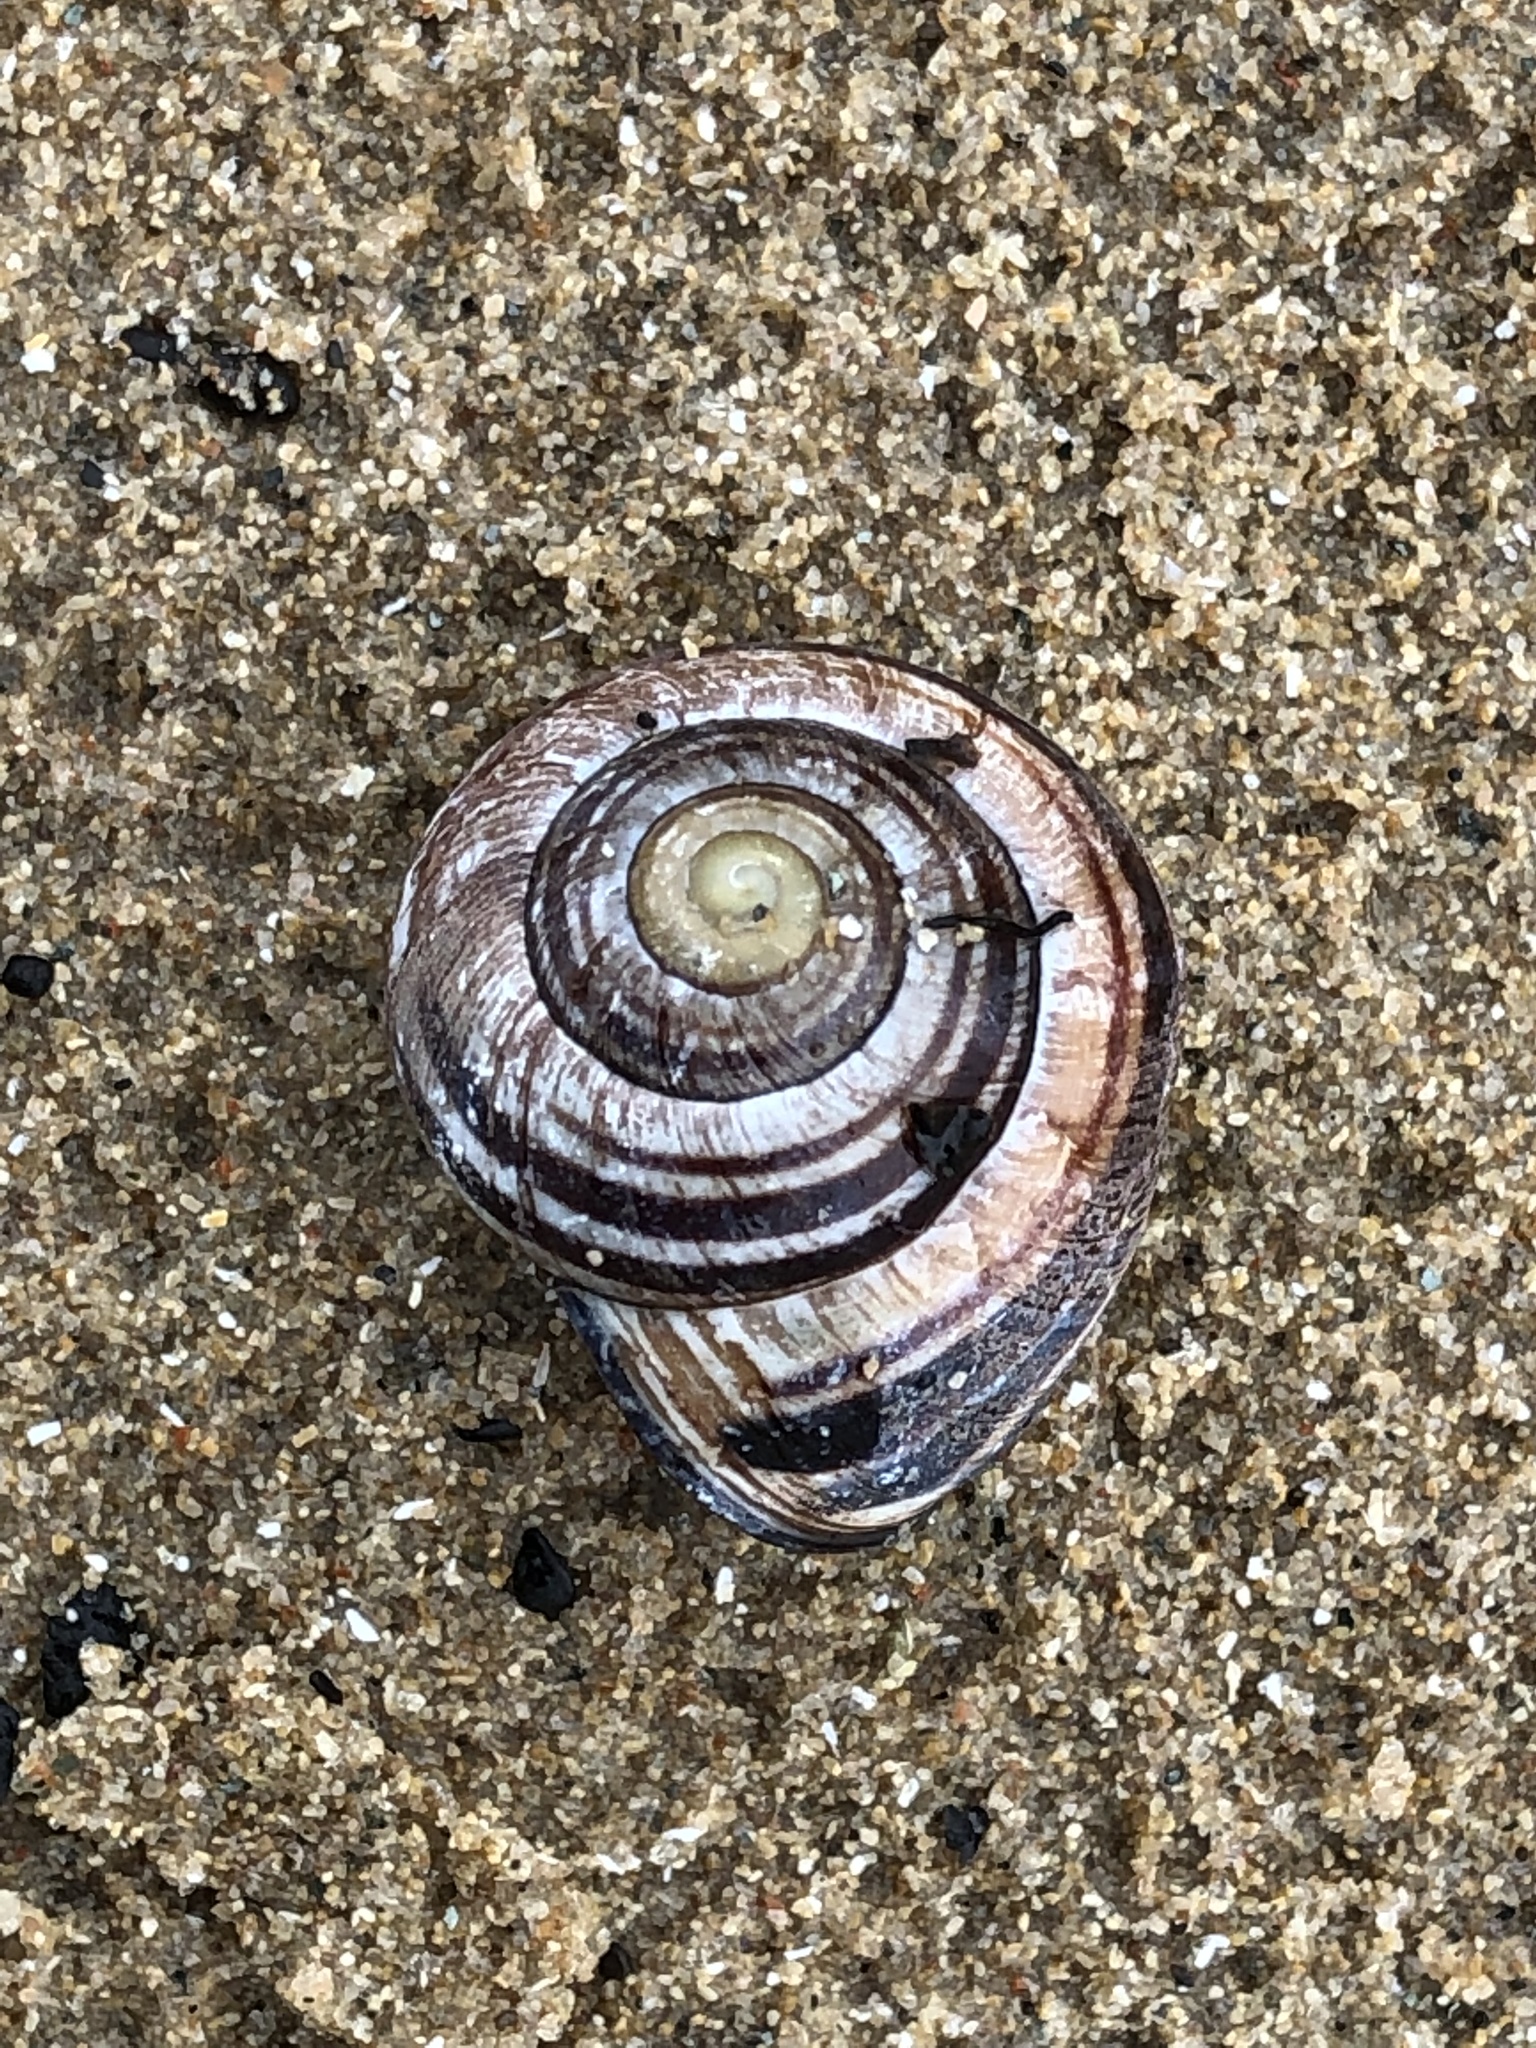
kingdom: Animalia
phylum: Mollusca
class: Gastropoda
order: Stylommatophora
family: Helicidae
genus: Cepaea
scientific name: Cepaea nemoralis
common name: Grovesnail
